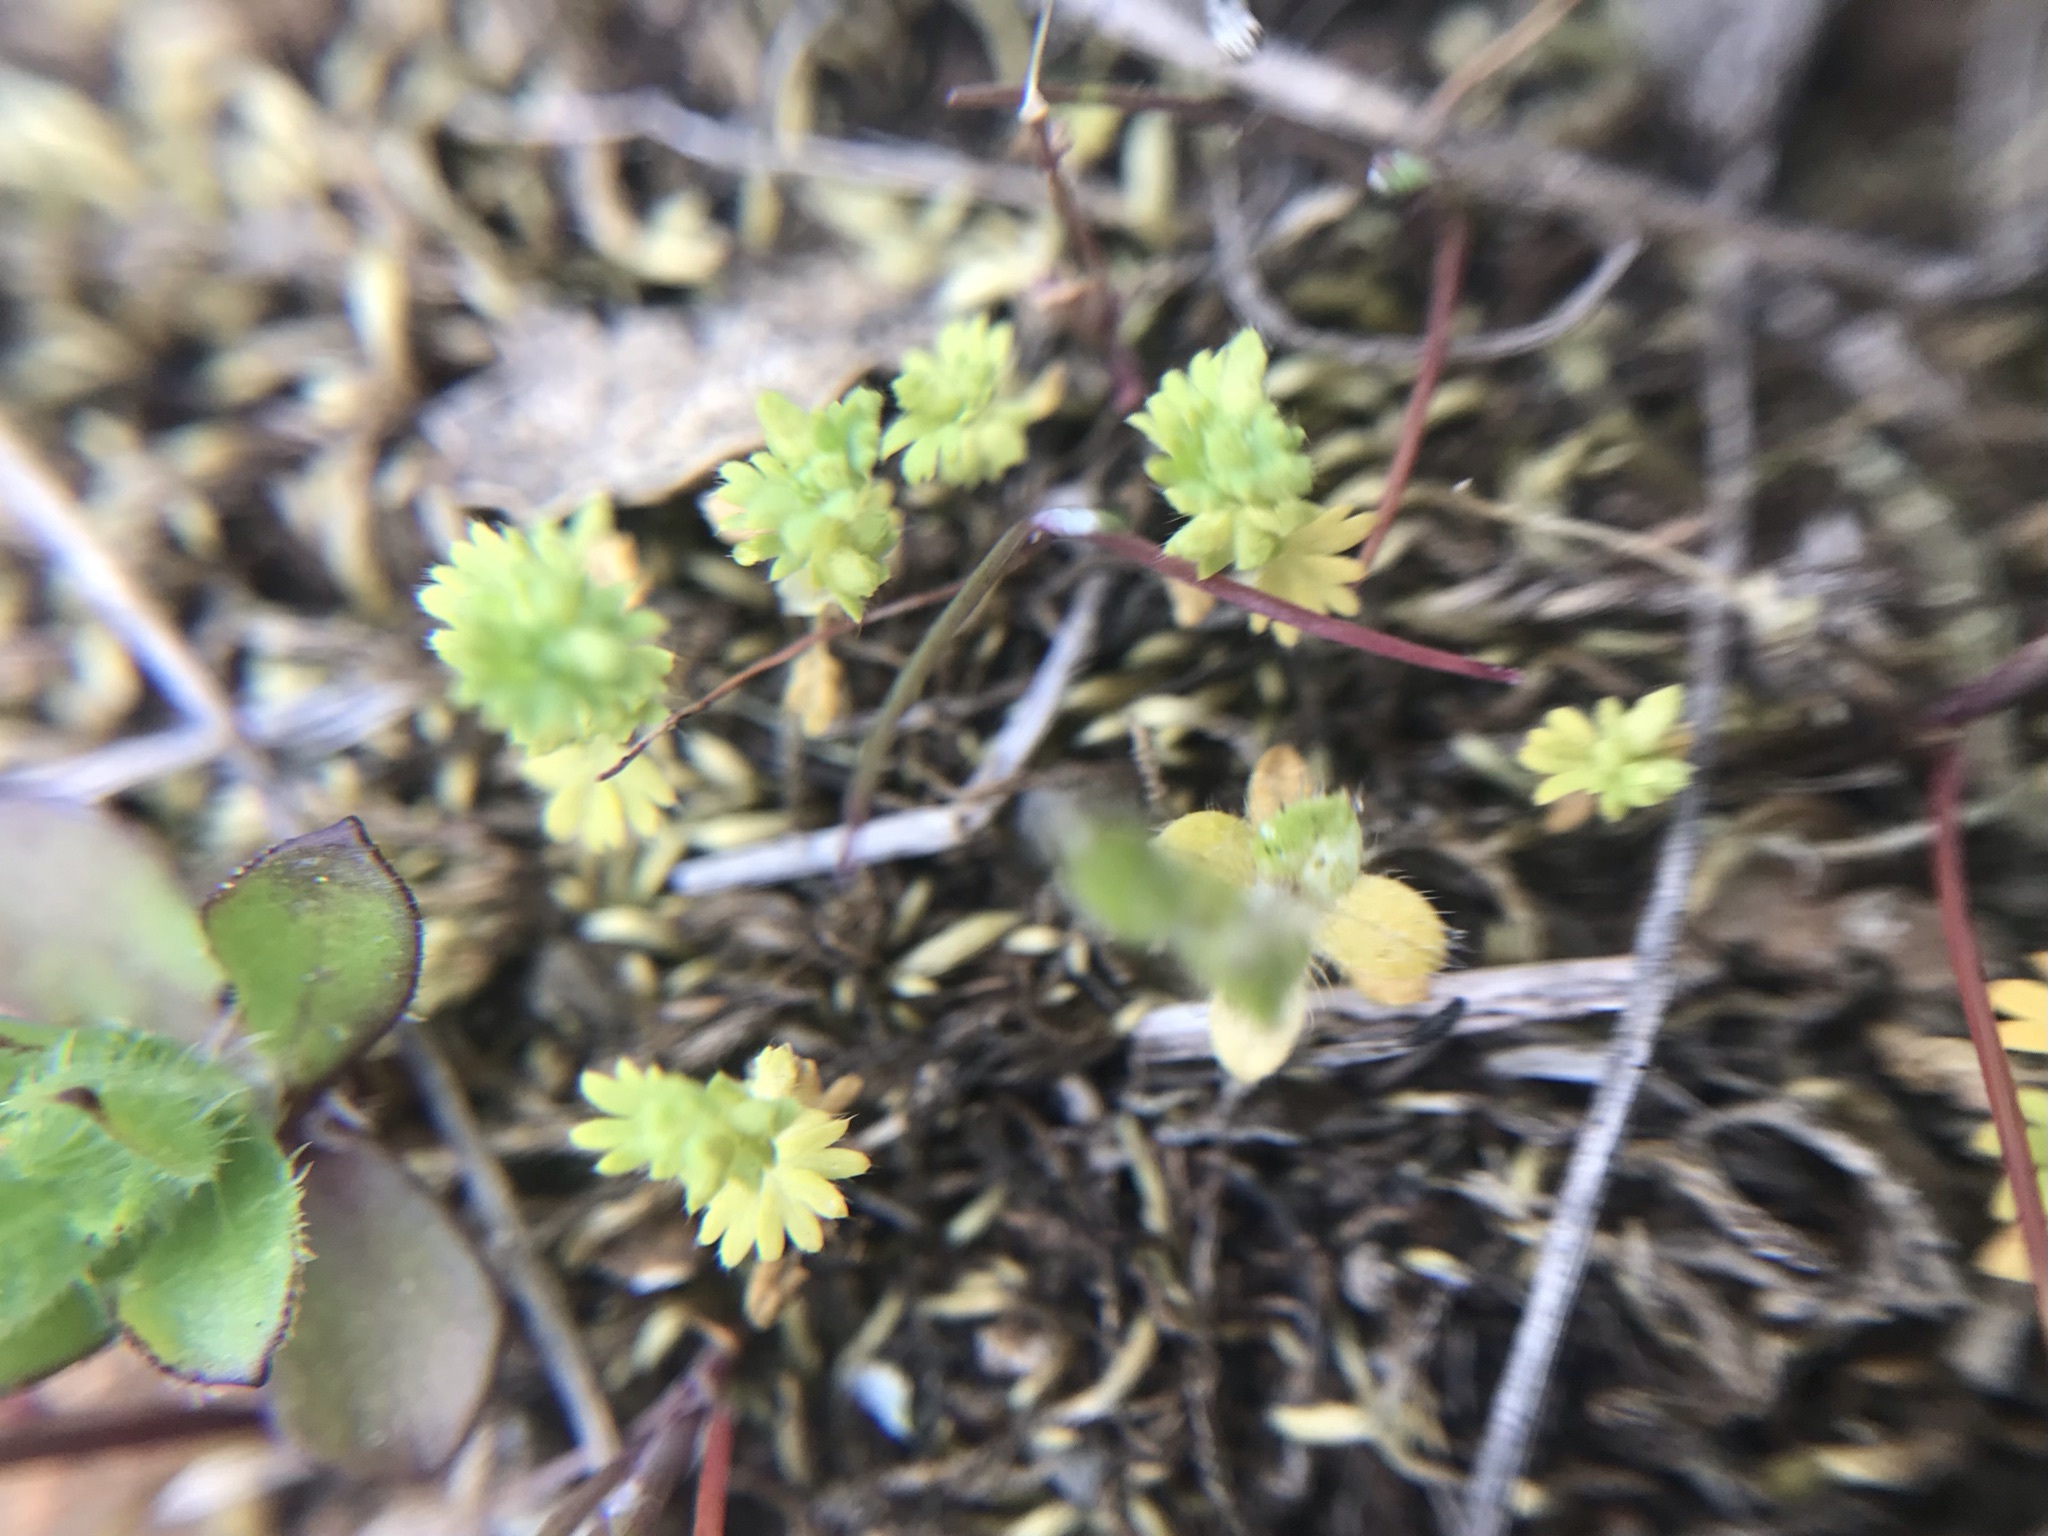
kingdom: Plantae
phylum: Tracheophyta
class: Magnoliopsida
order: Rosales
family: Rosaceae
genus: Aphanes
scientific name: Aphanes arvensis
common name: Parsley-piert
